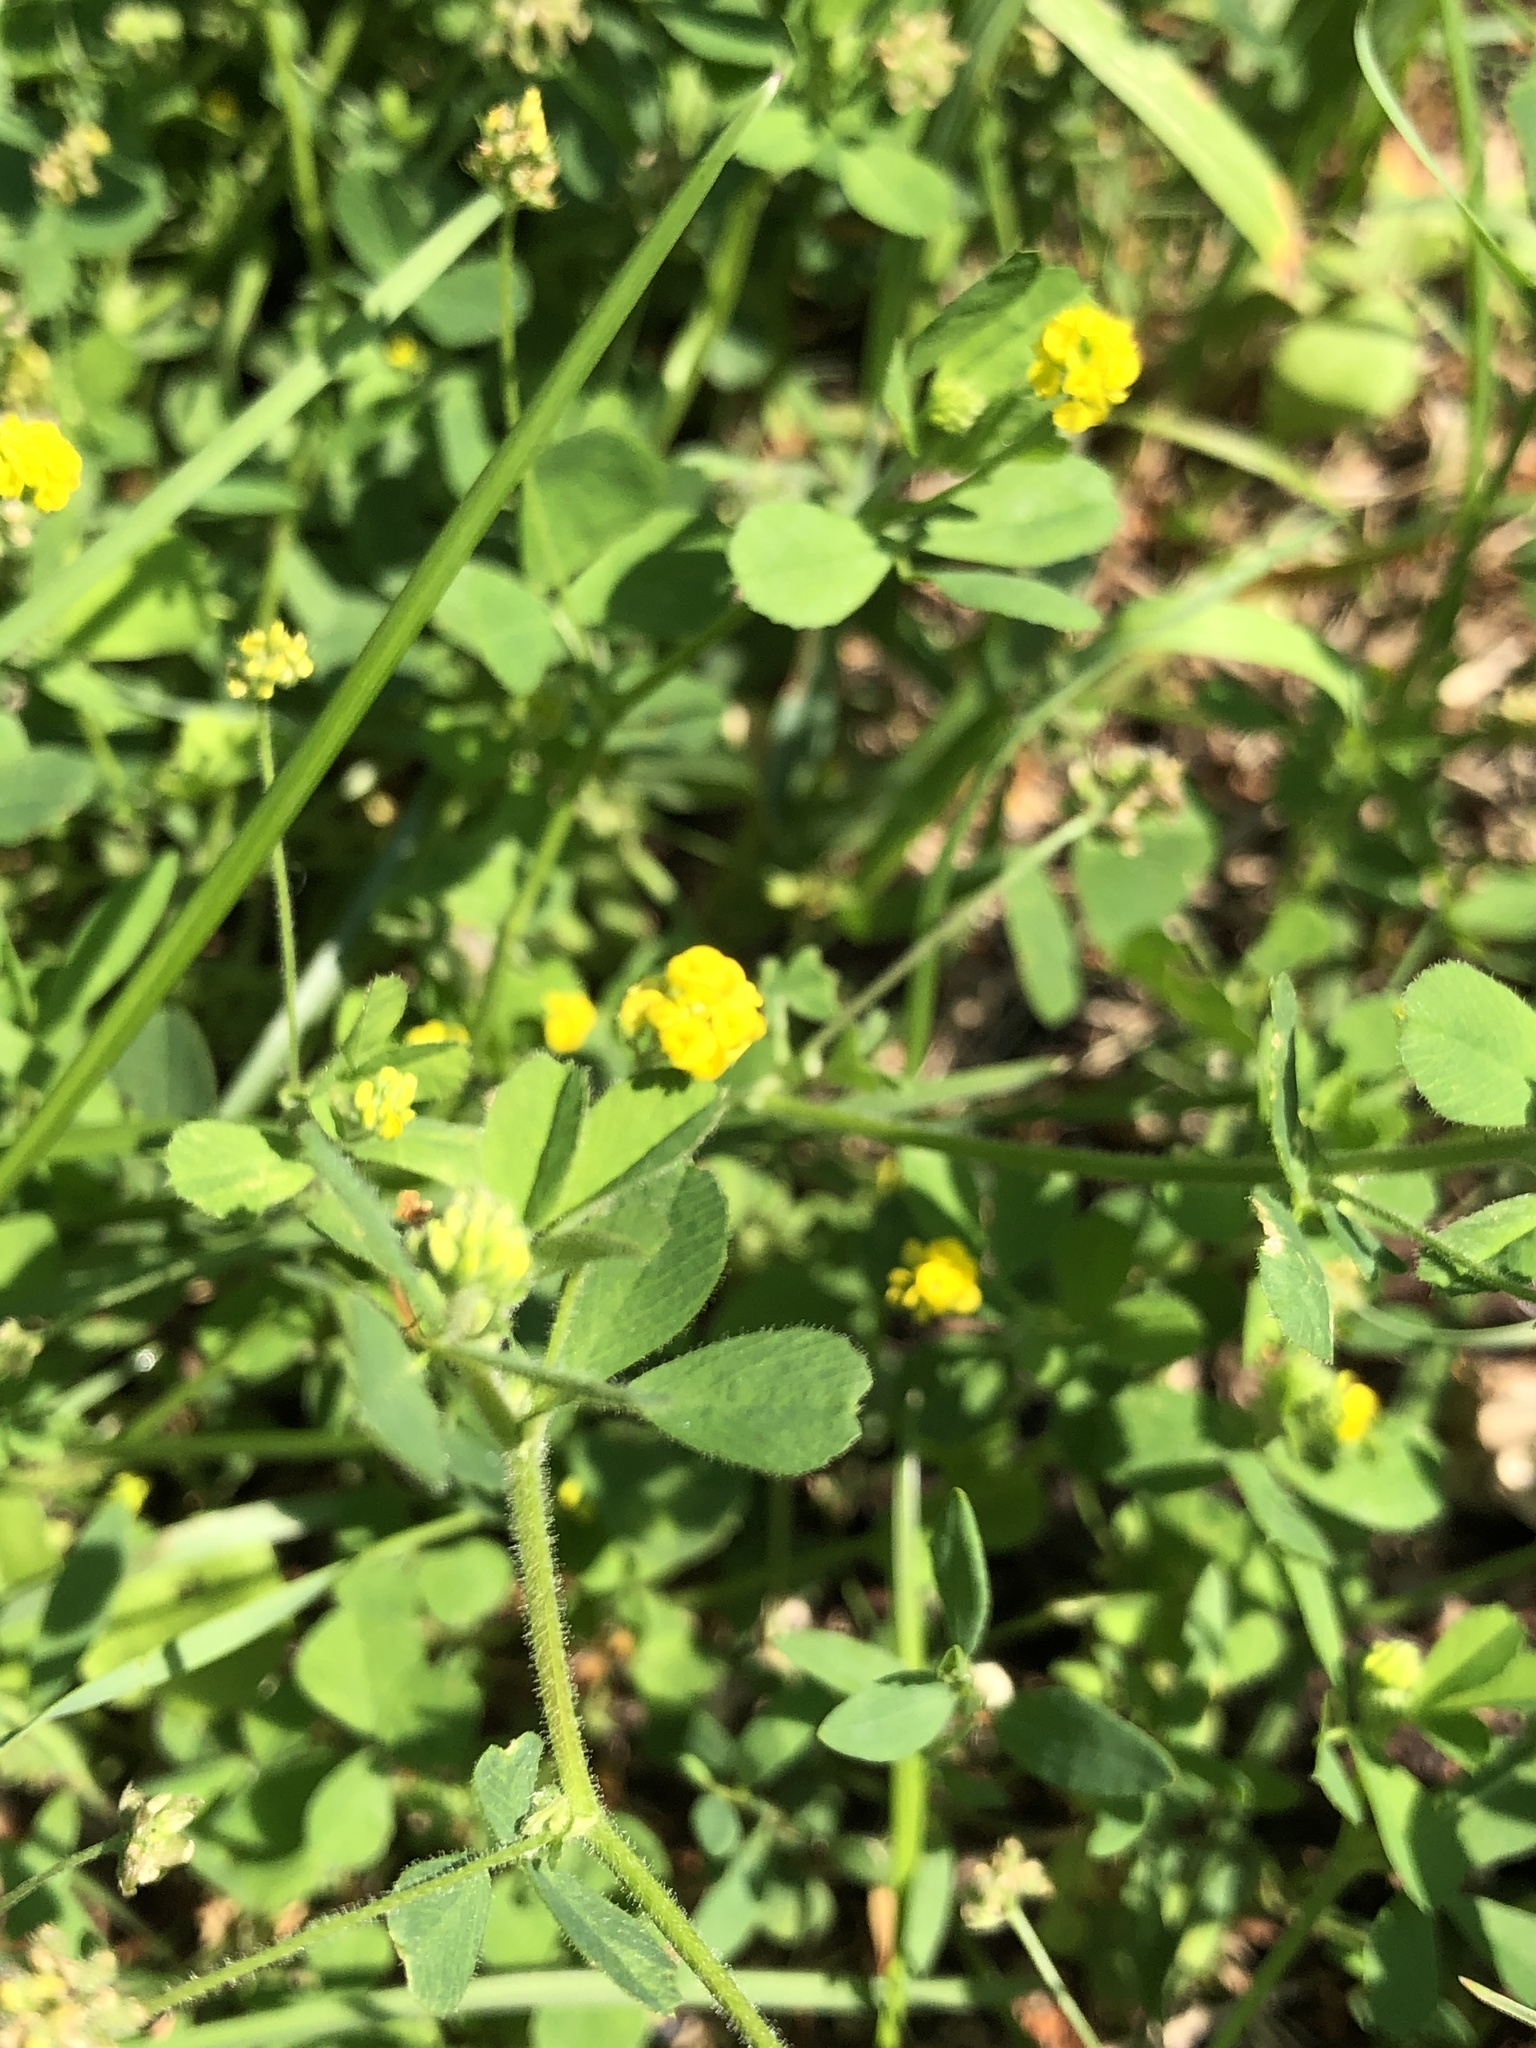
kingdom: Plantae
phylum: Tracheophyta
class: Magnoliopsida
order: Fabales
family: Fabaceae
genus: Medicago
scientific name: Medicago lupulina
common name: Black medick
